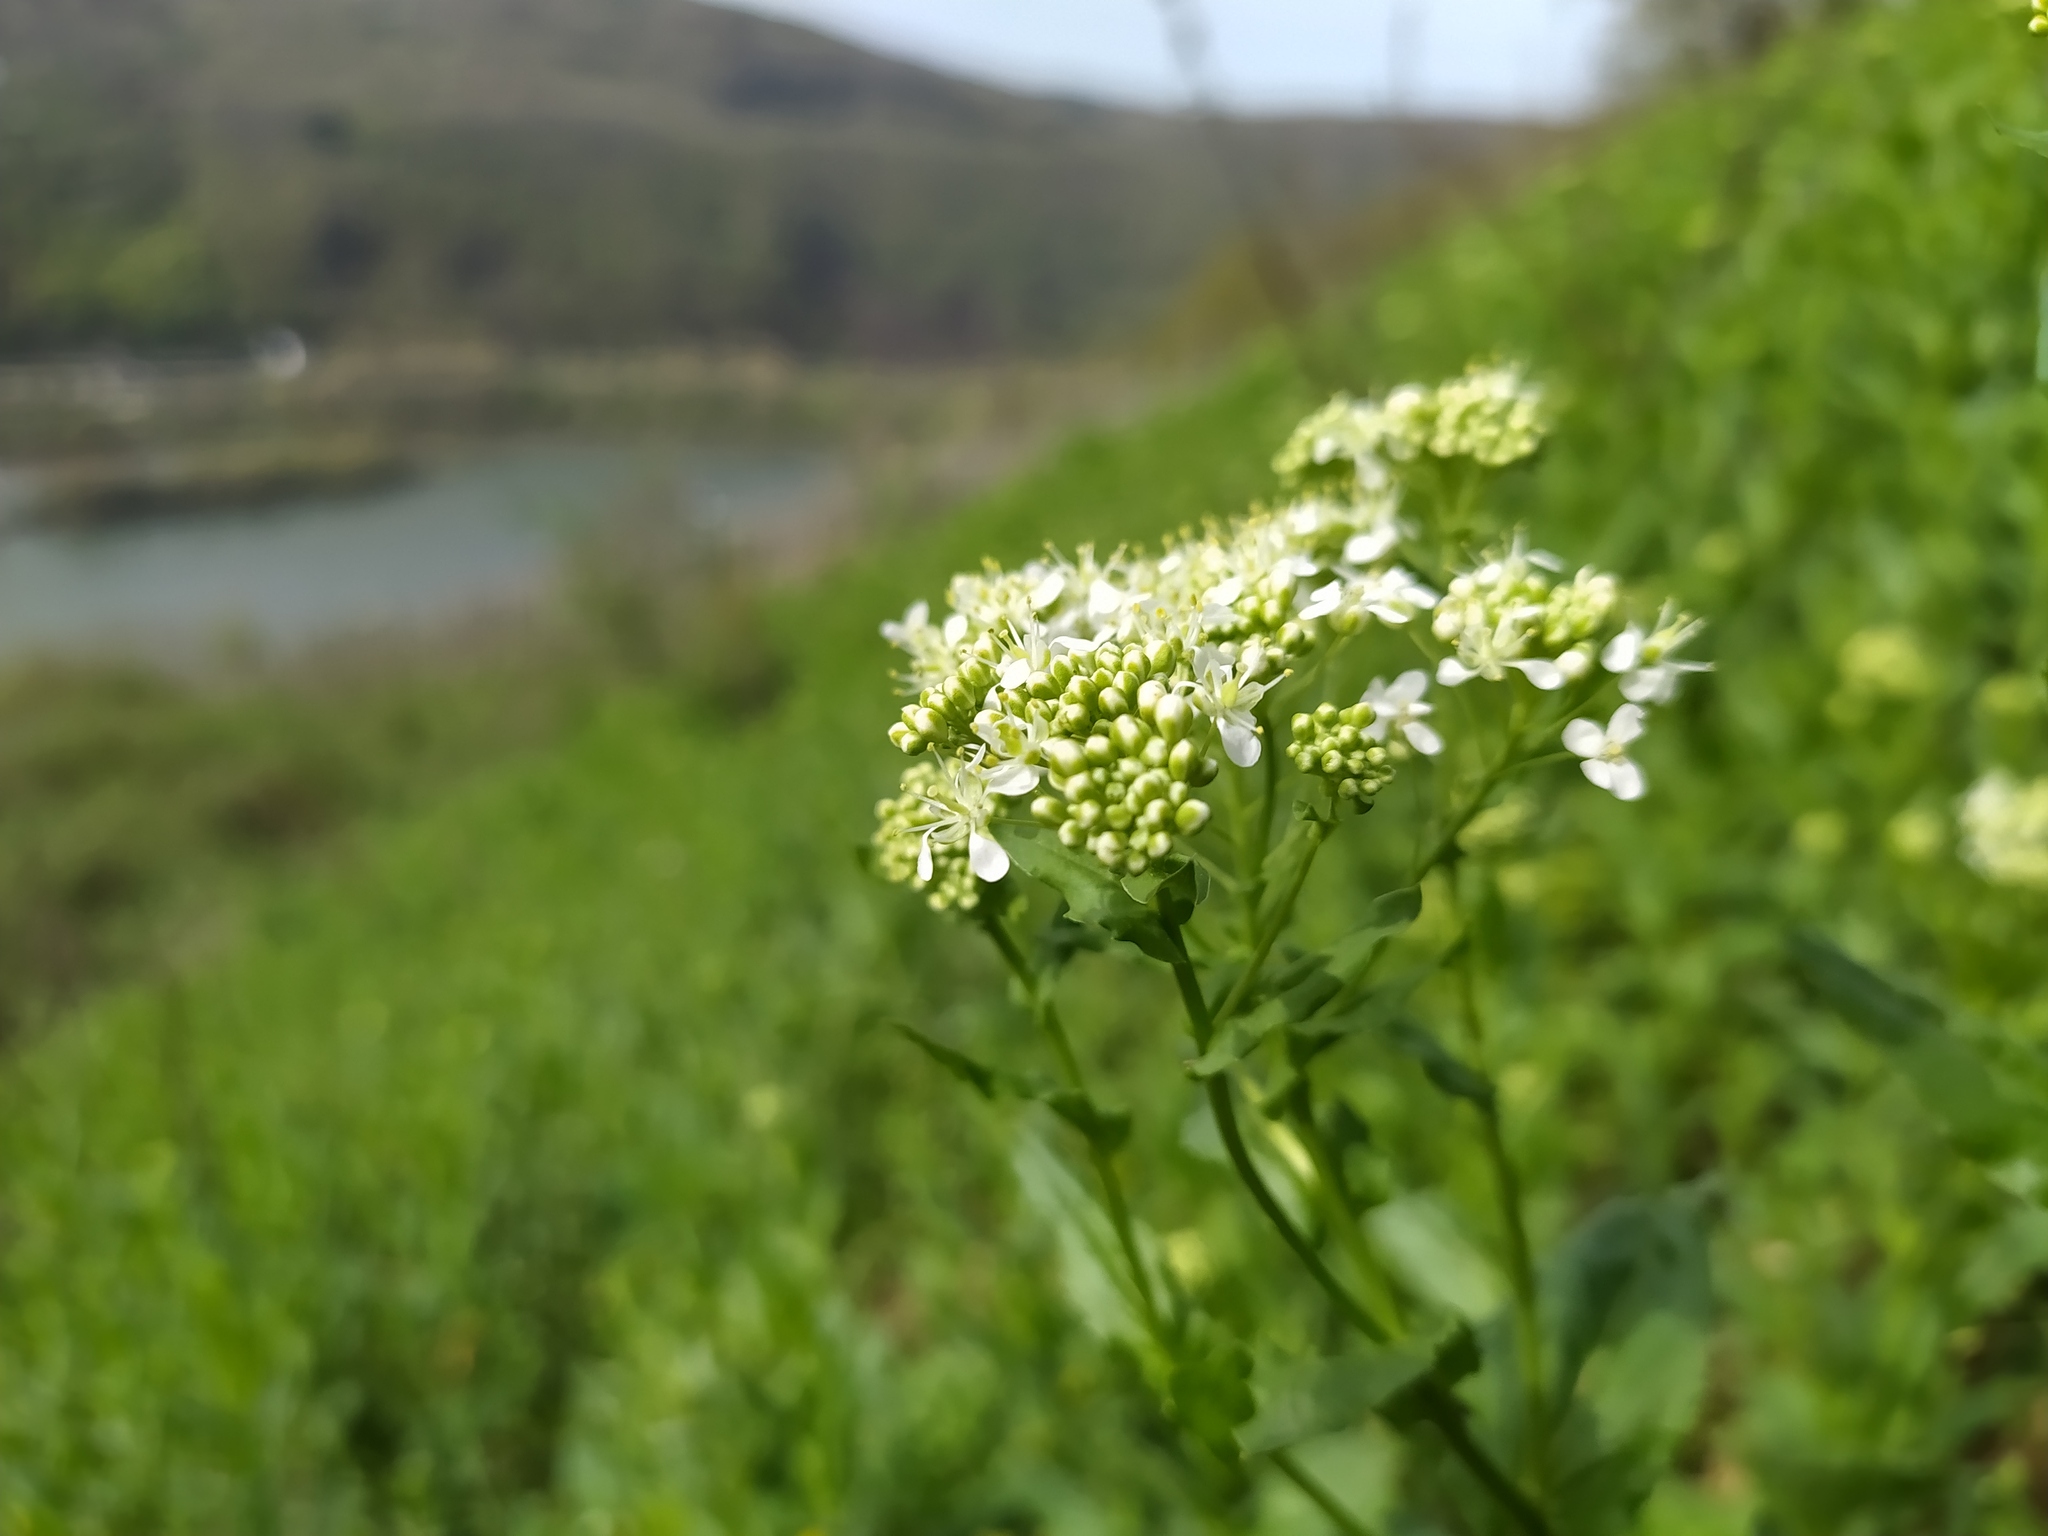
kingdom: Plantae
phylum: Tracheophyta
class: Magnoliopsida
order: Brassicales
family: Brassicaceae
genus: Lepidium
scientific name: Lepidium draba
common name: Hoary cress
